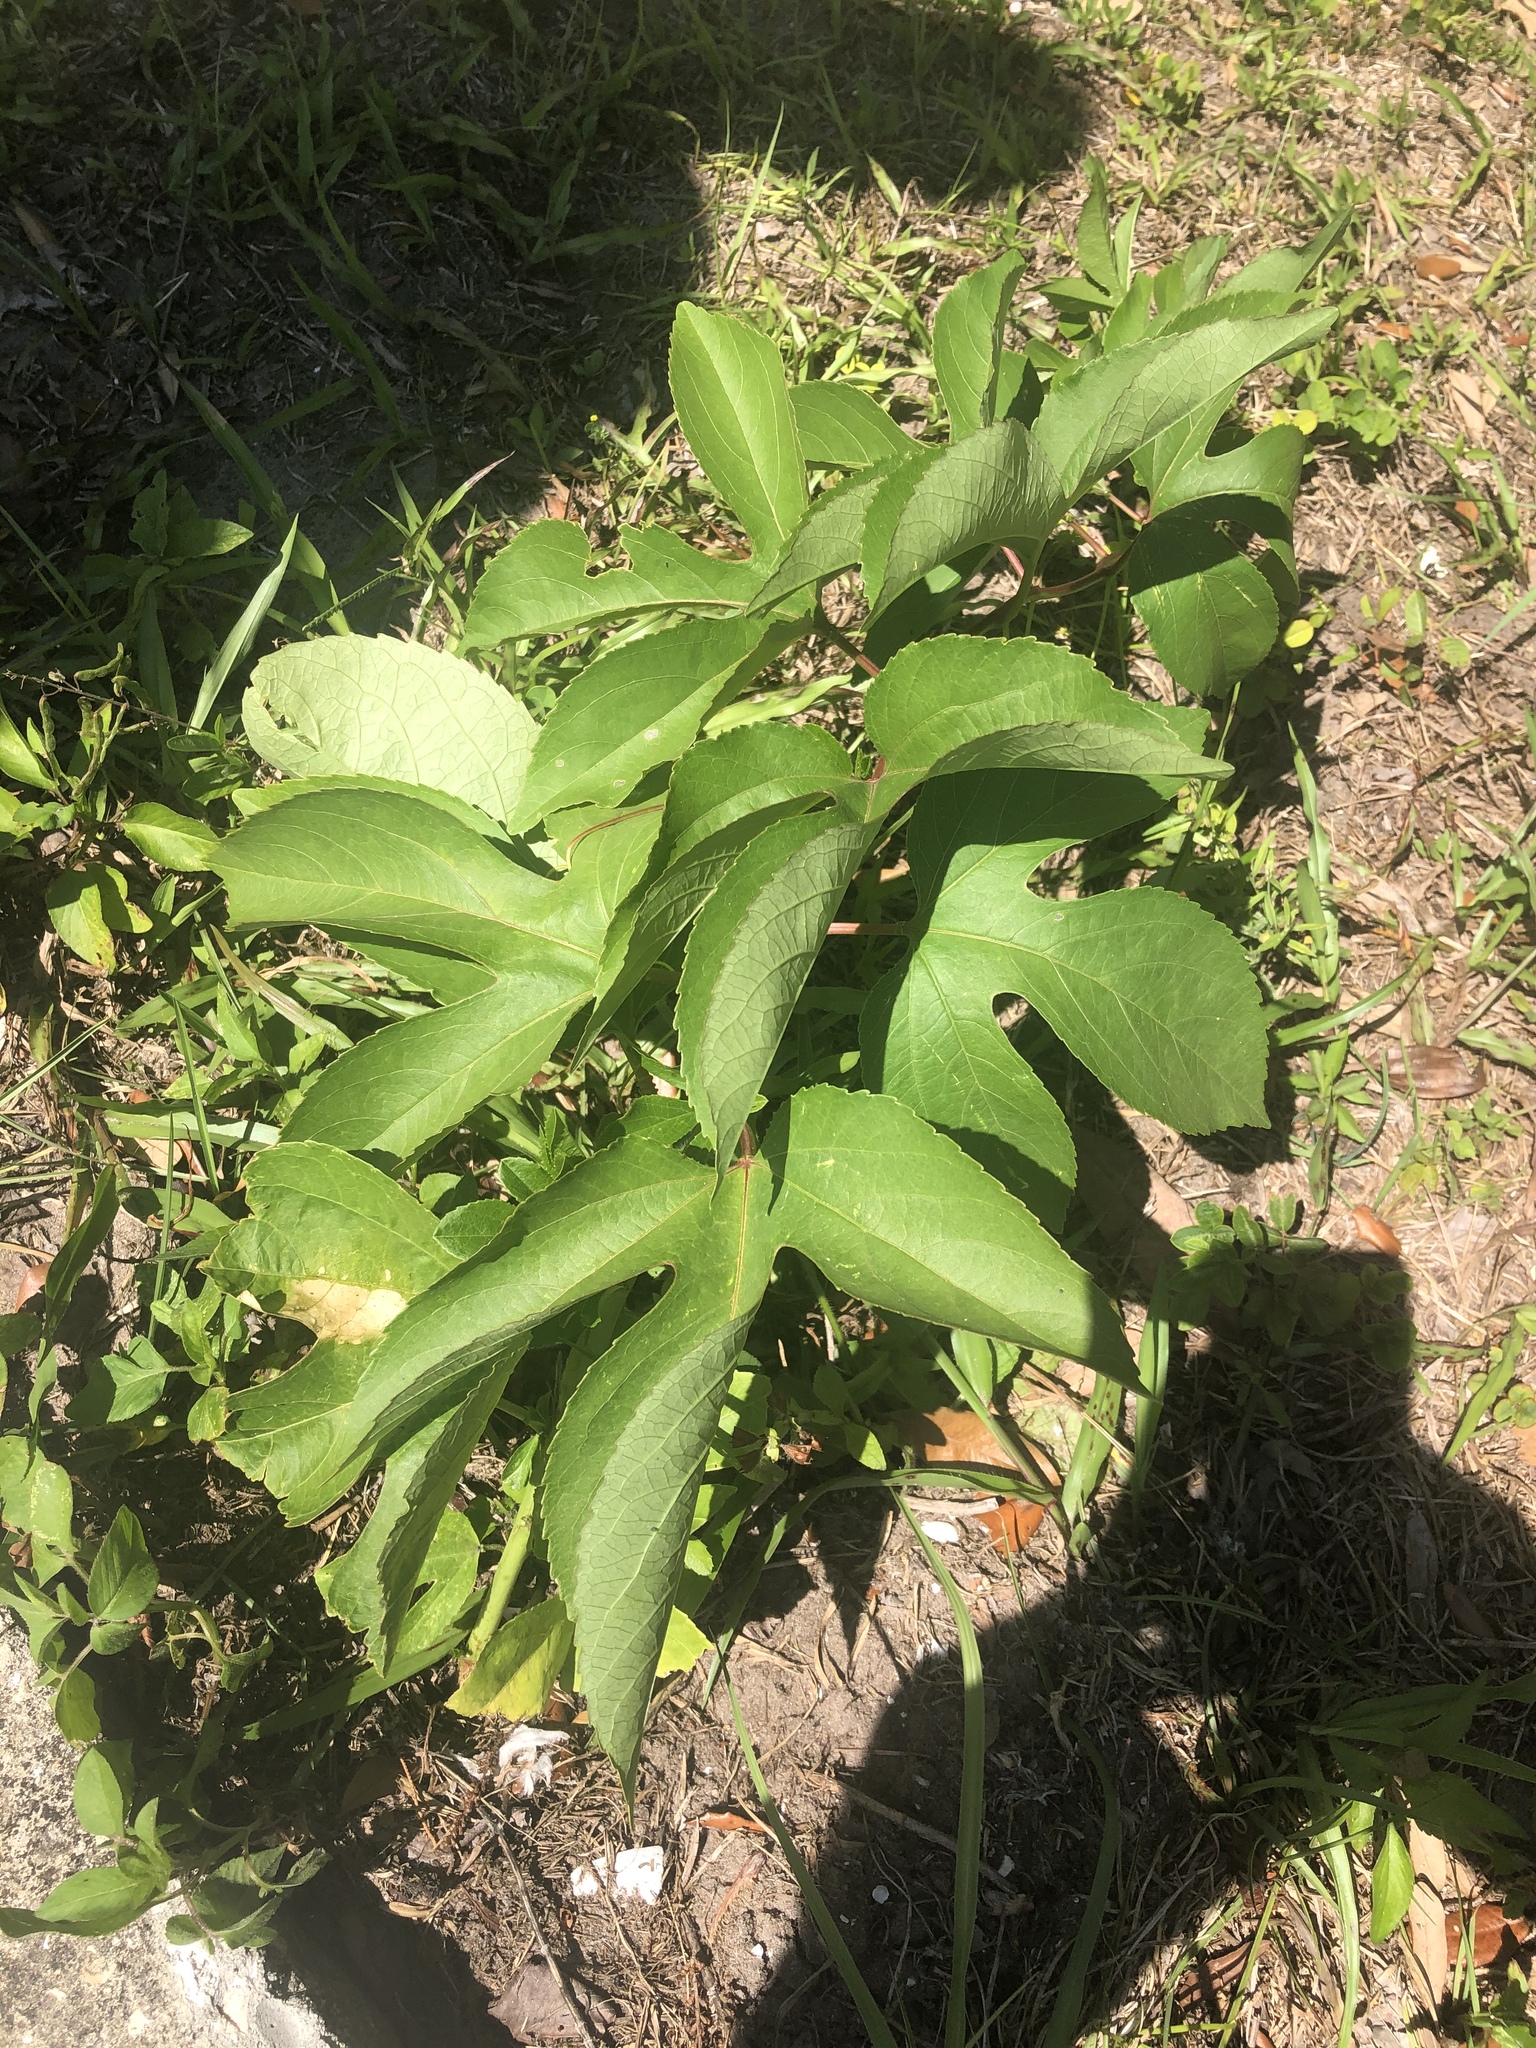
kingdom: Plantae
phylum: Tracheophyta
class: Magnoliopsida
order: Malpighiales
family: Passifloraceae
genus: Passiflora
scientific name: Passiflora incarnata
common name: Apricot-vine
